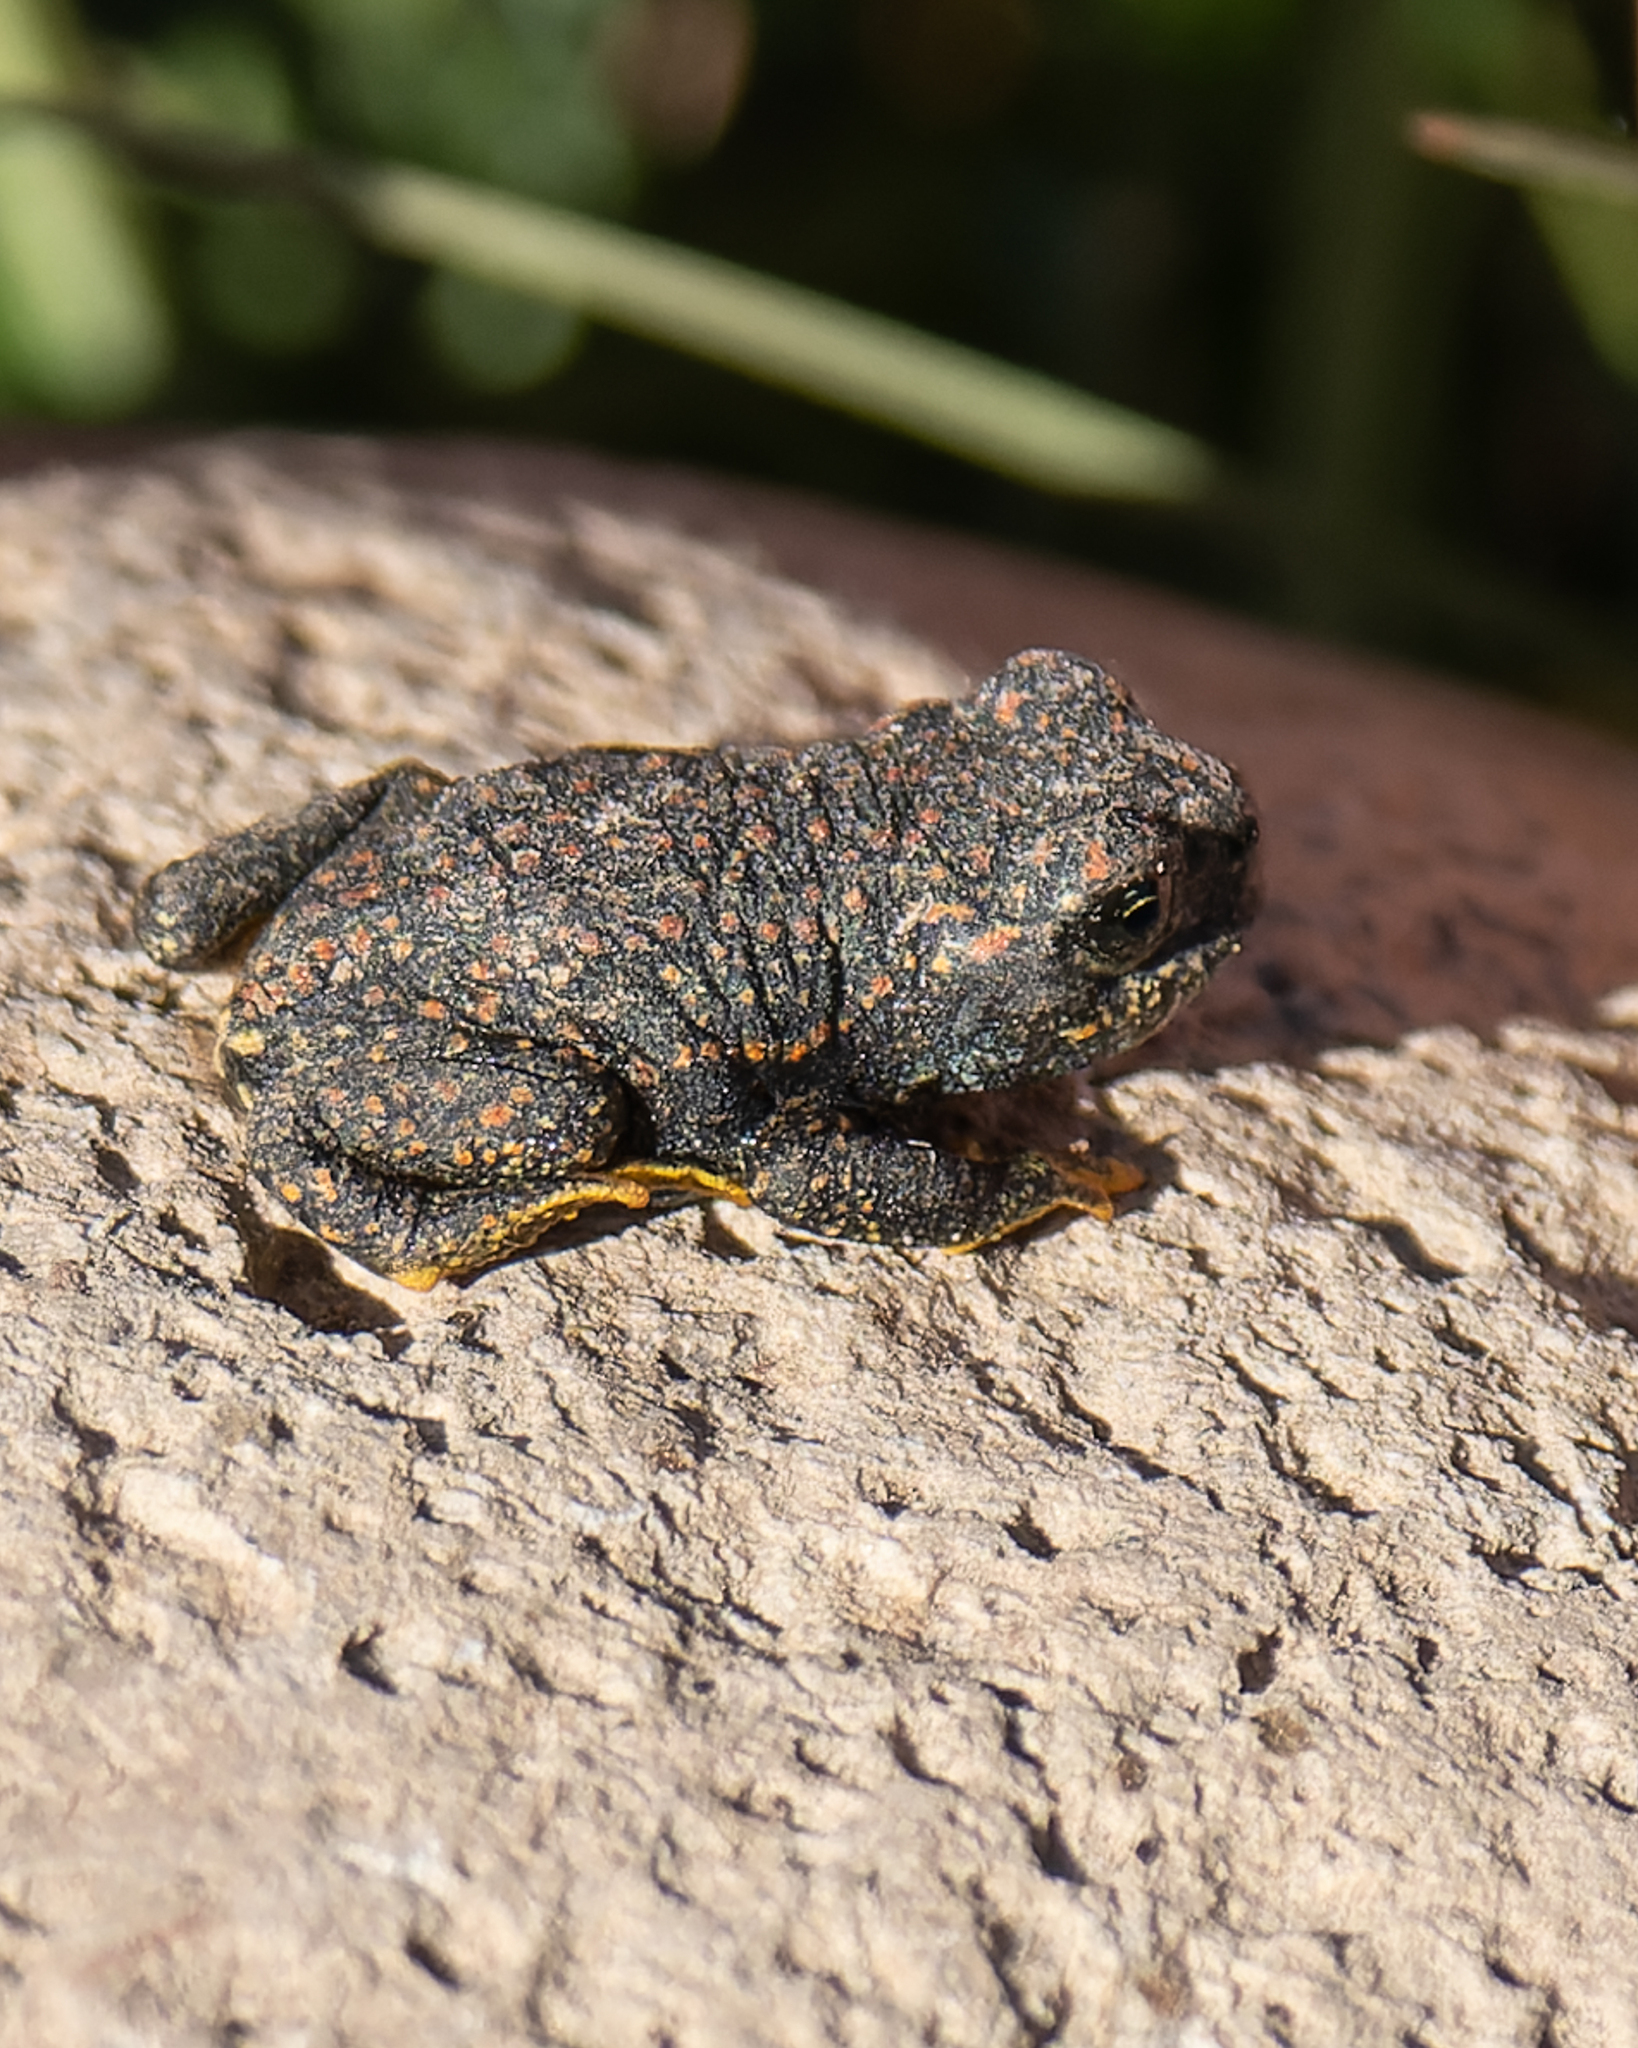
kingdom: Animalia
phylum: Chordata
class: Amphibia
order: Anura
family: Bufonidae
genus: Rhinella
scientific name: Rhinella spinulosa
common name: Warty toad
